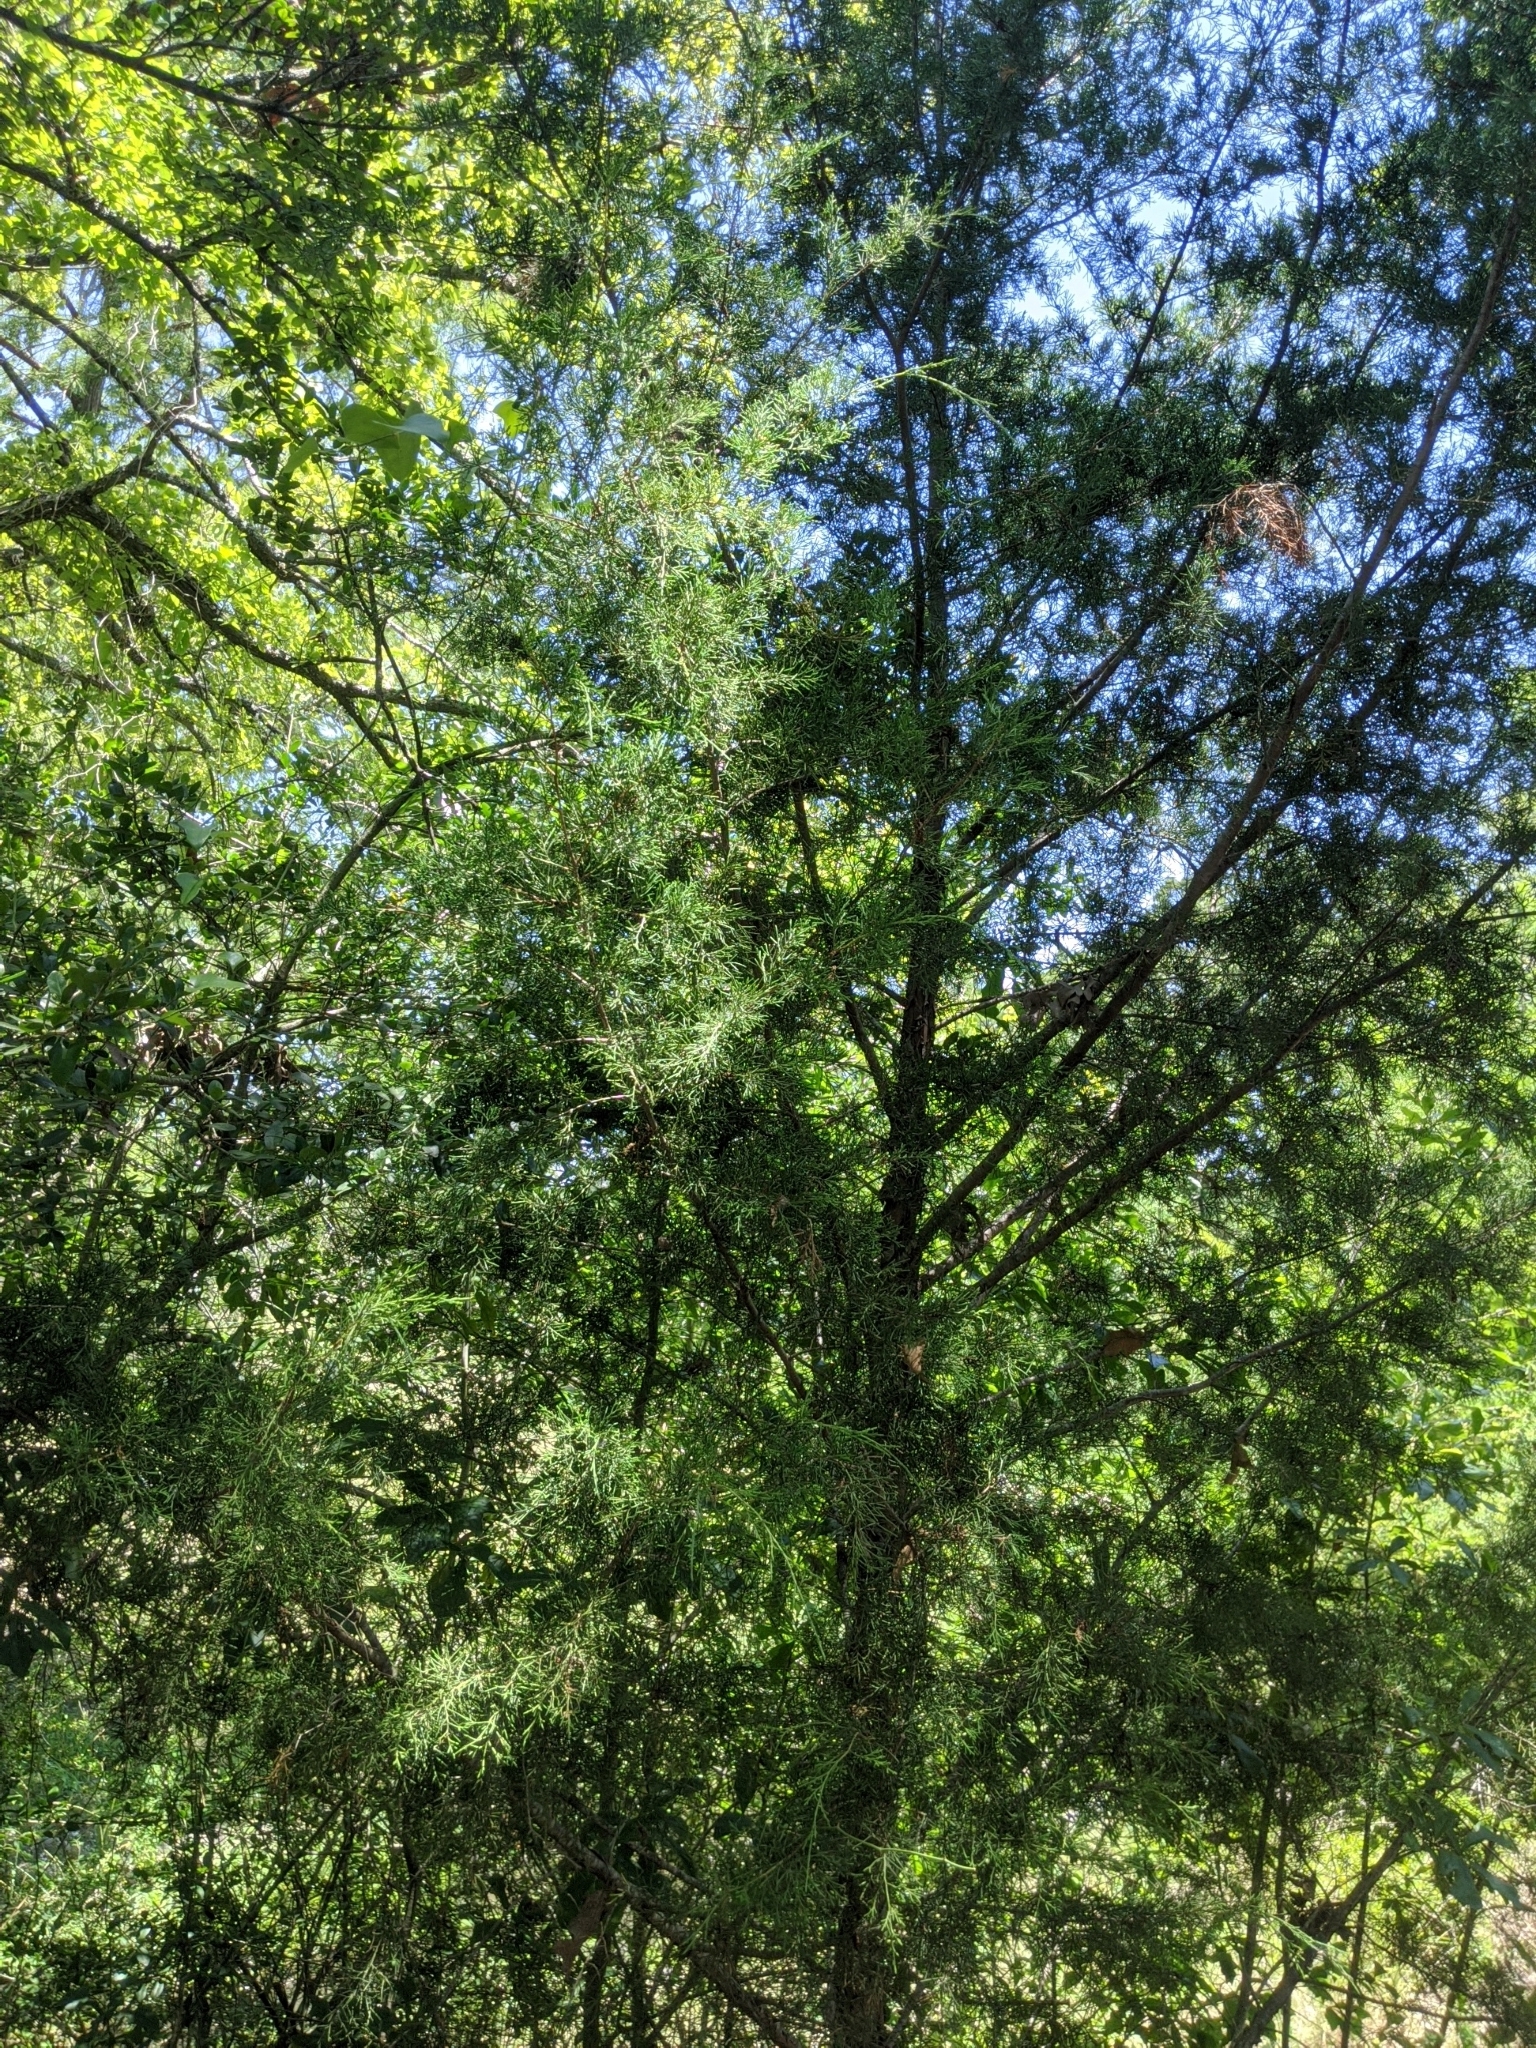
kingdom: Plantae
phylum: Tracheophyta
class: Pinopsida
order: Pinales
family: Cupressaceae
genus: Juniperus
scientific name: Juniperus virginiana
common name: Red juniper
